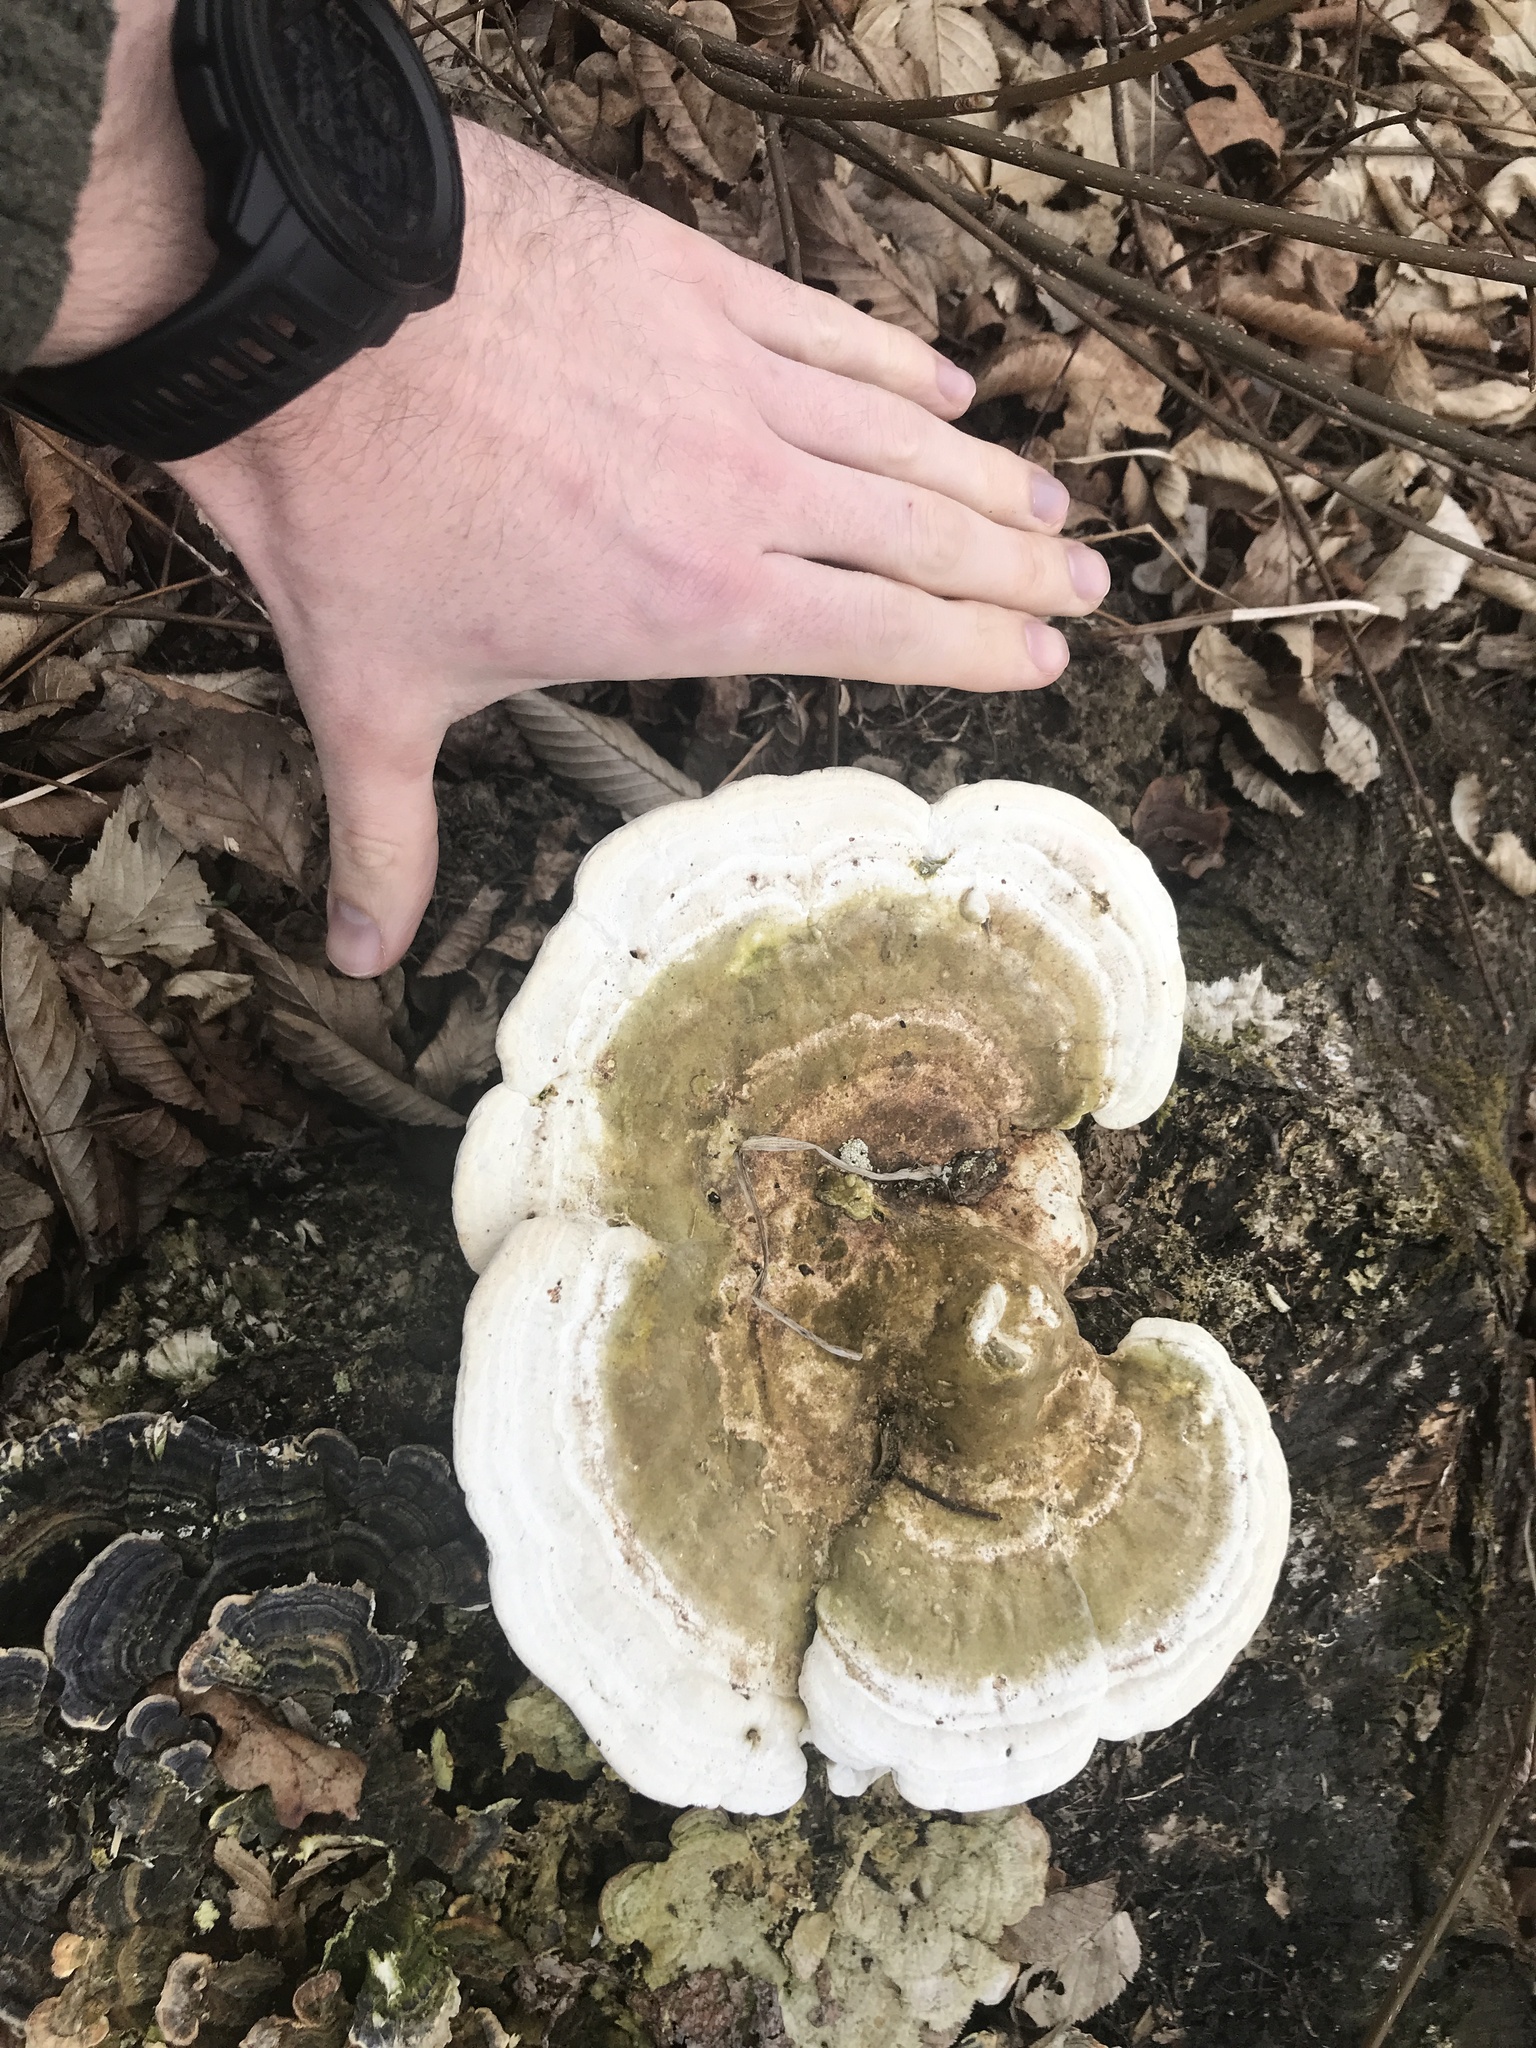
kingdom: Fungi
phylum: Basidiomycota
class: Agaricomycetes
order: Polyporales
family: Polyporaceae
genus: Trametes
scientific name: Trametes gibbosa
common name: Lumpy bracket
